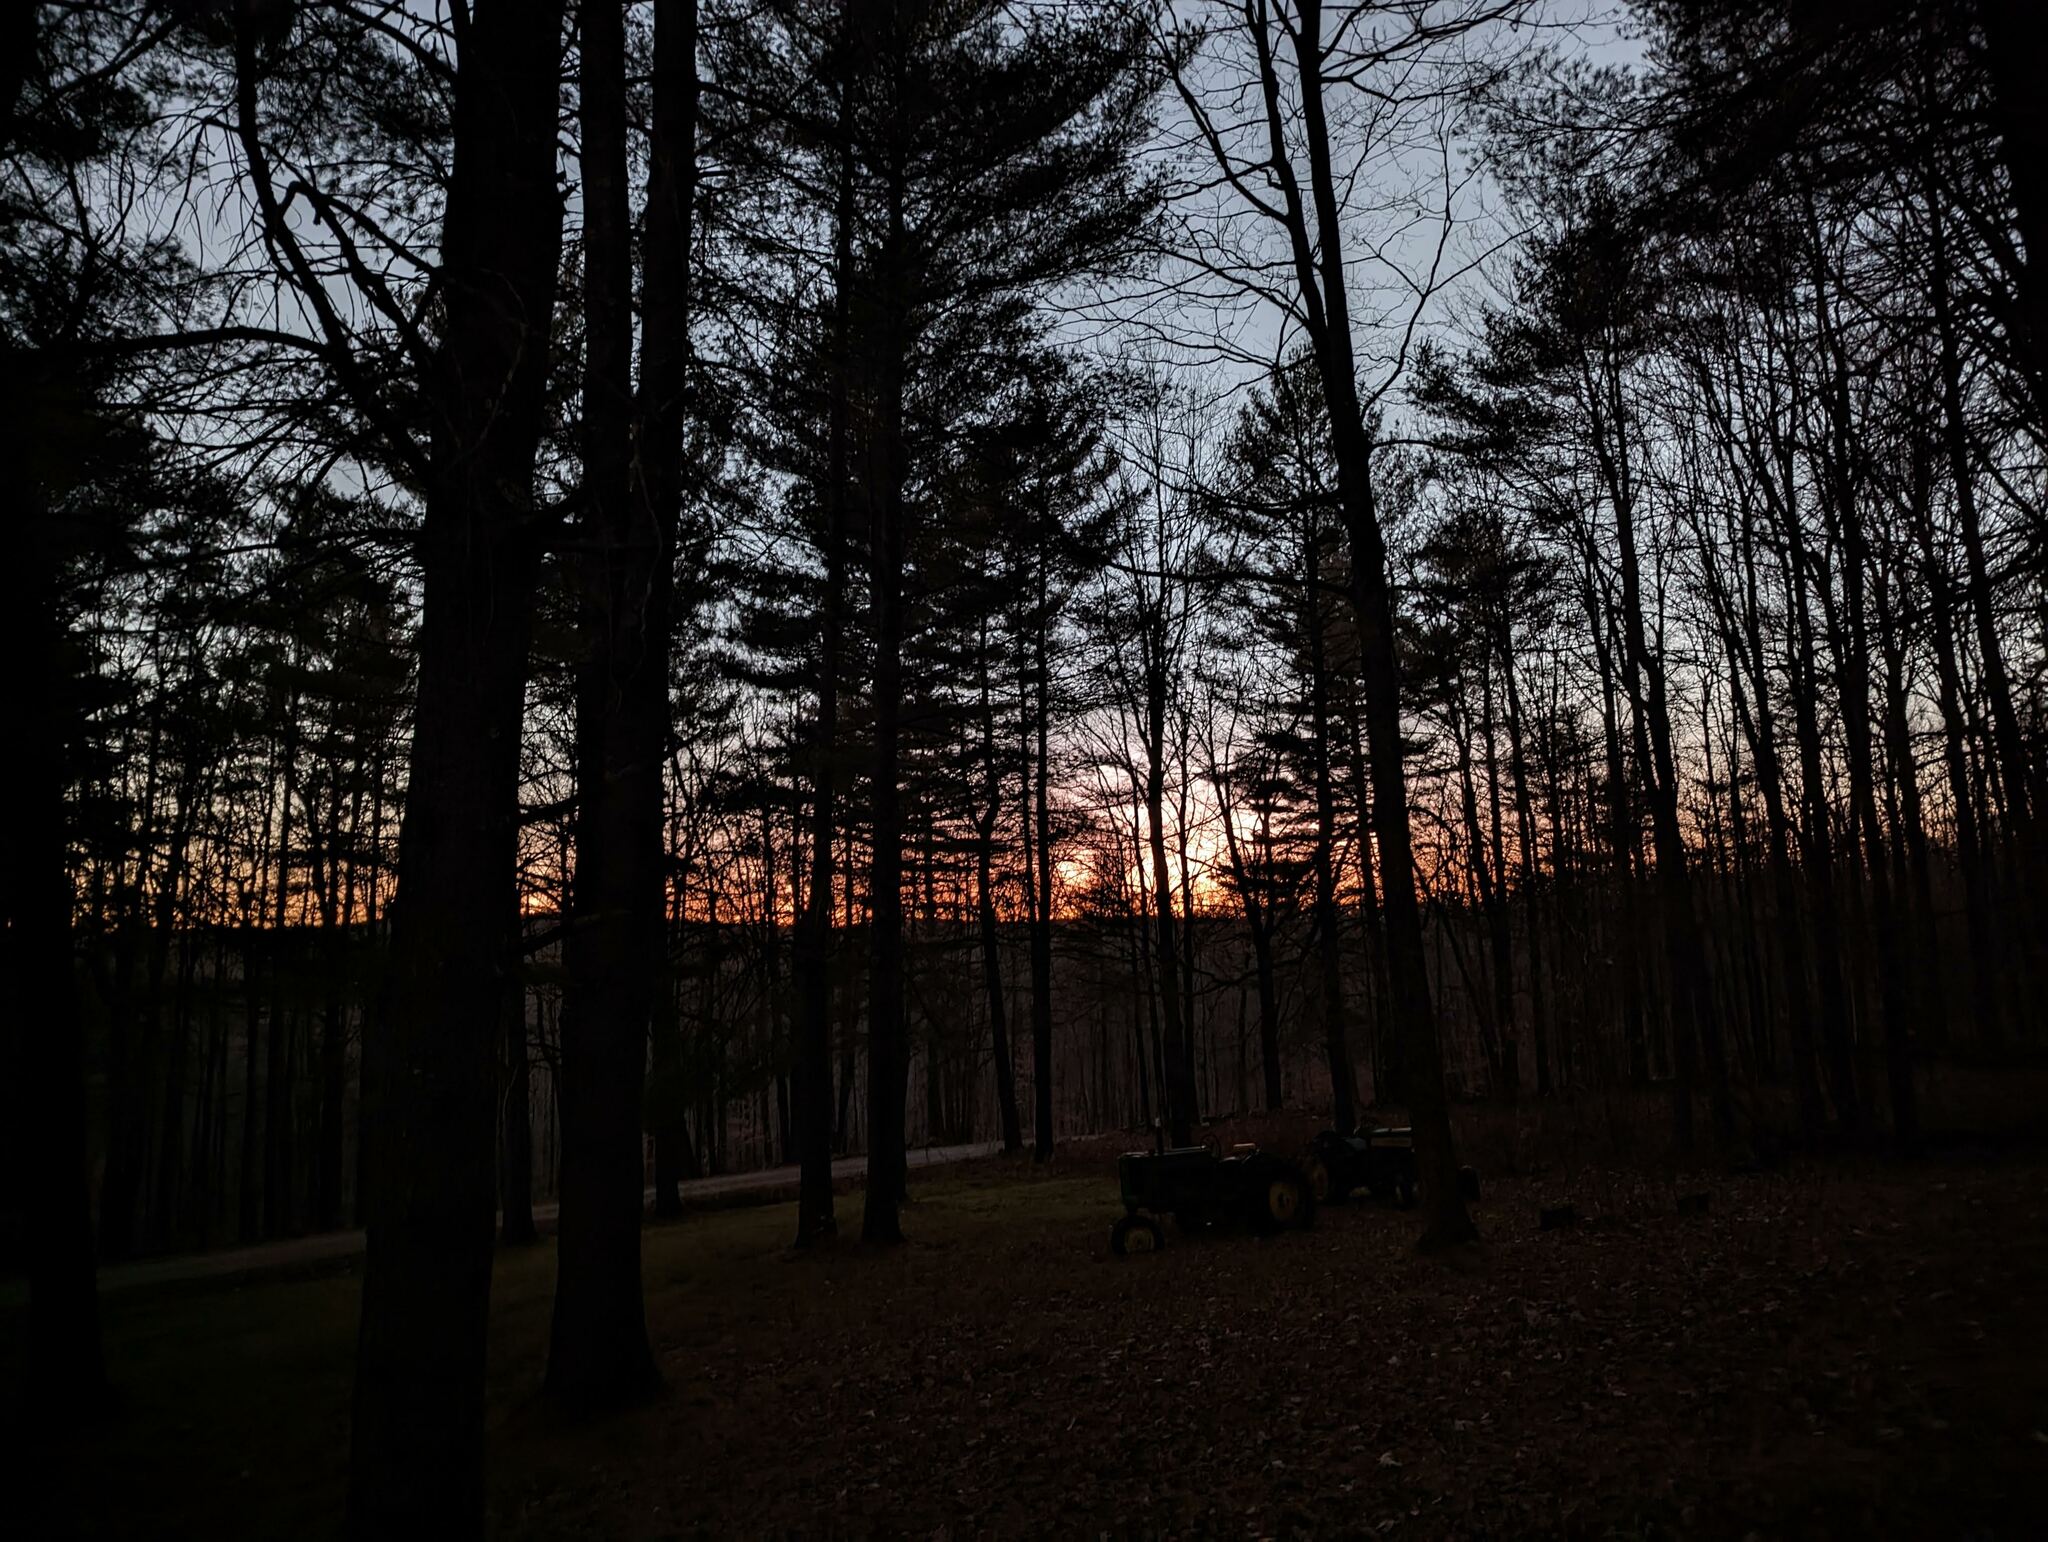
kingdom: Plantae
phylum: Tracheophyta
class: Pinopsida
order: Pinales
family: Pinaceae
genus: Pinus
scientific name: Pinus strobus
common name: Weymouth pine
